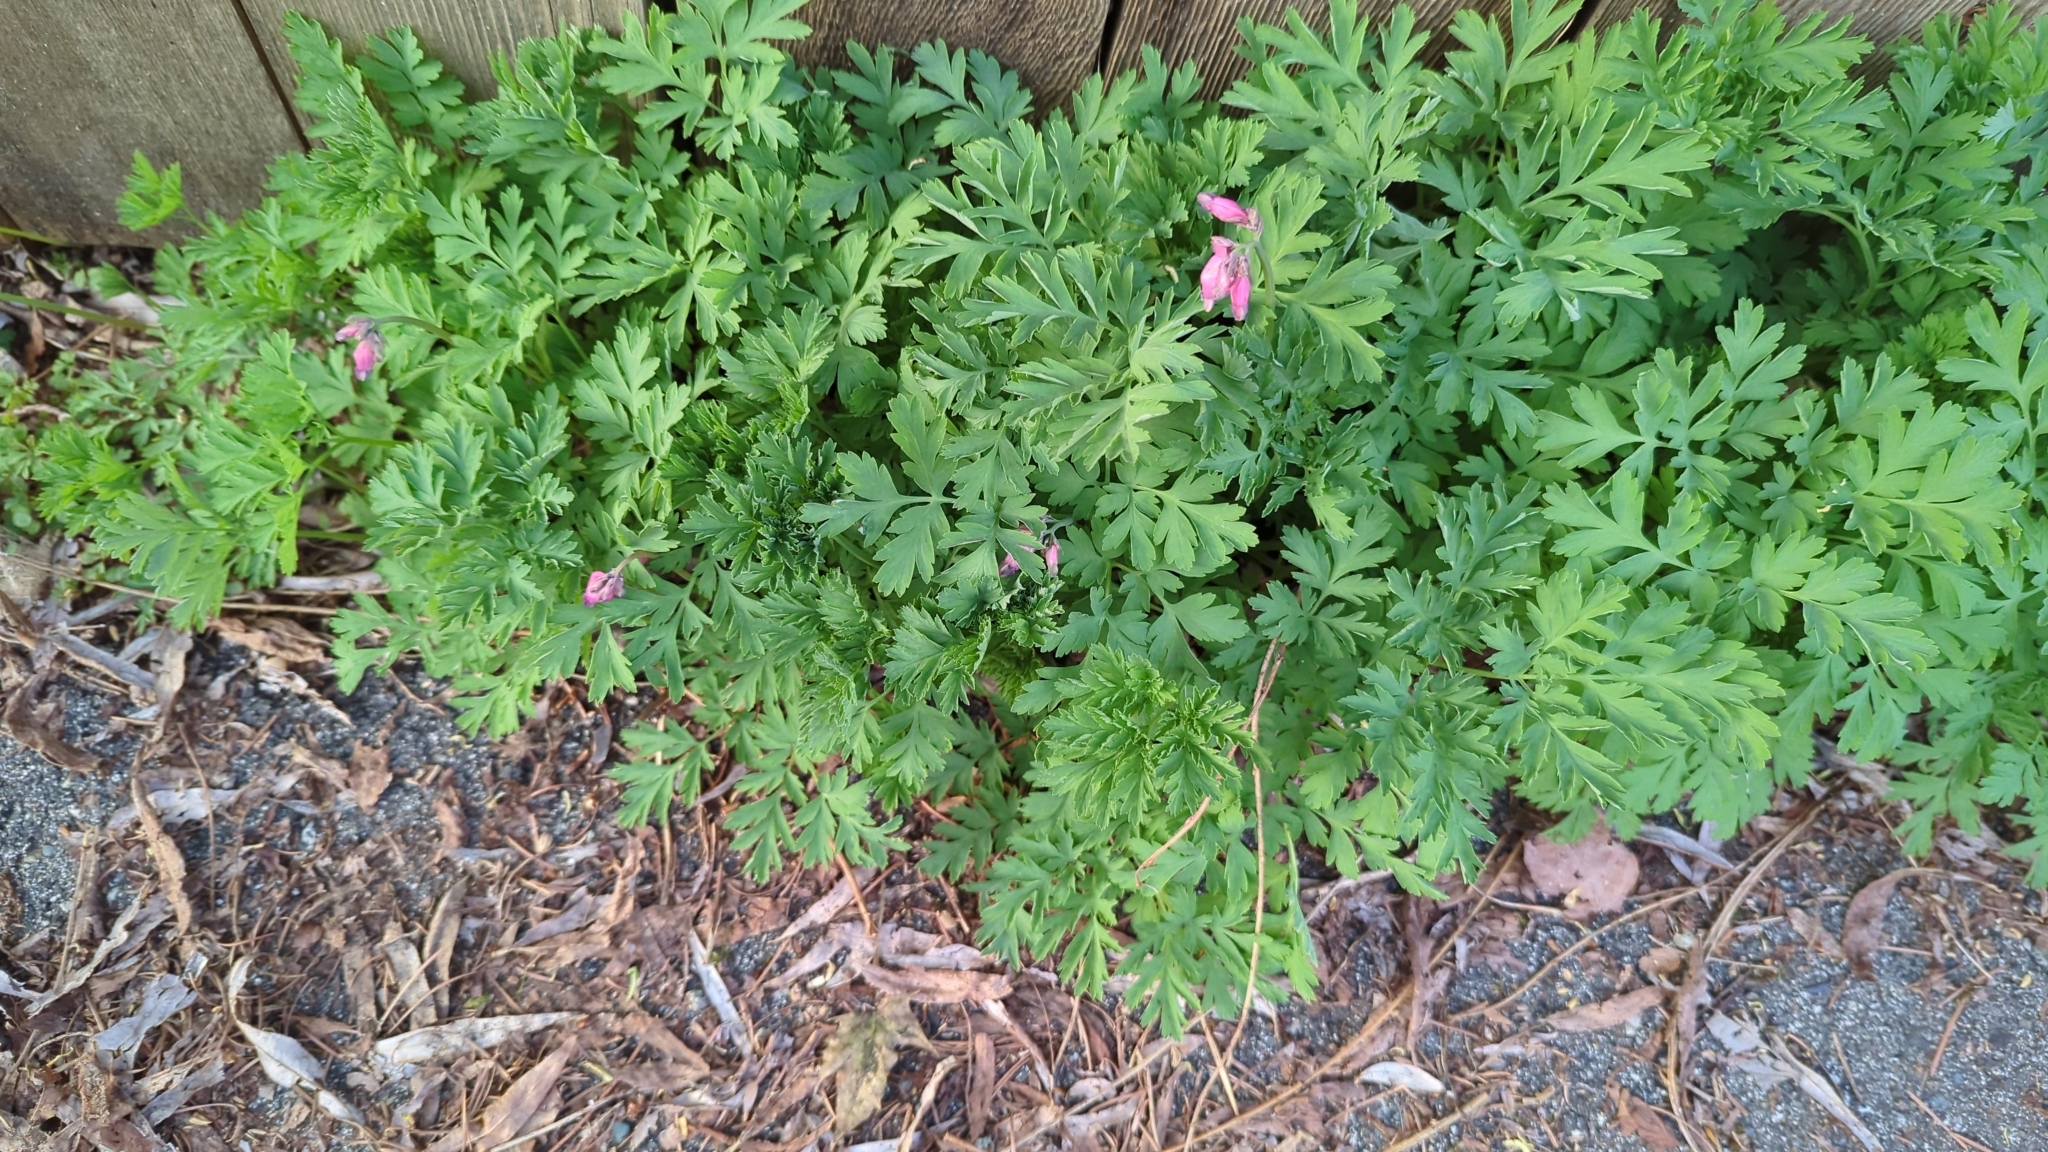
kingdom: Plantae
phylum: Tracheophyta
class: Magnoliopsida
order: Ranunculales
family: Papaveraceae
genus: Dicentra
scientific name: Dicentra formosa
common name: Bleeding-heart
